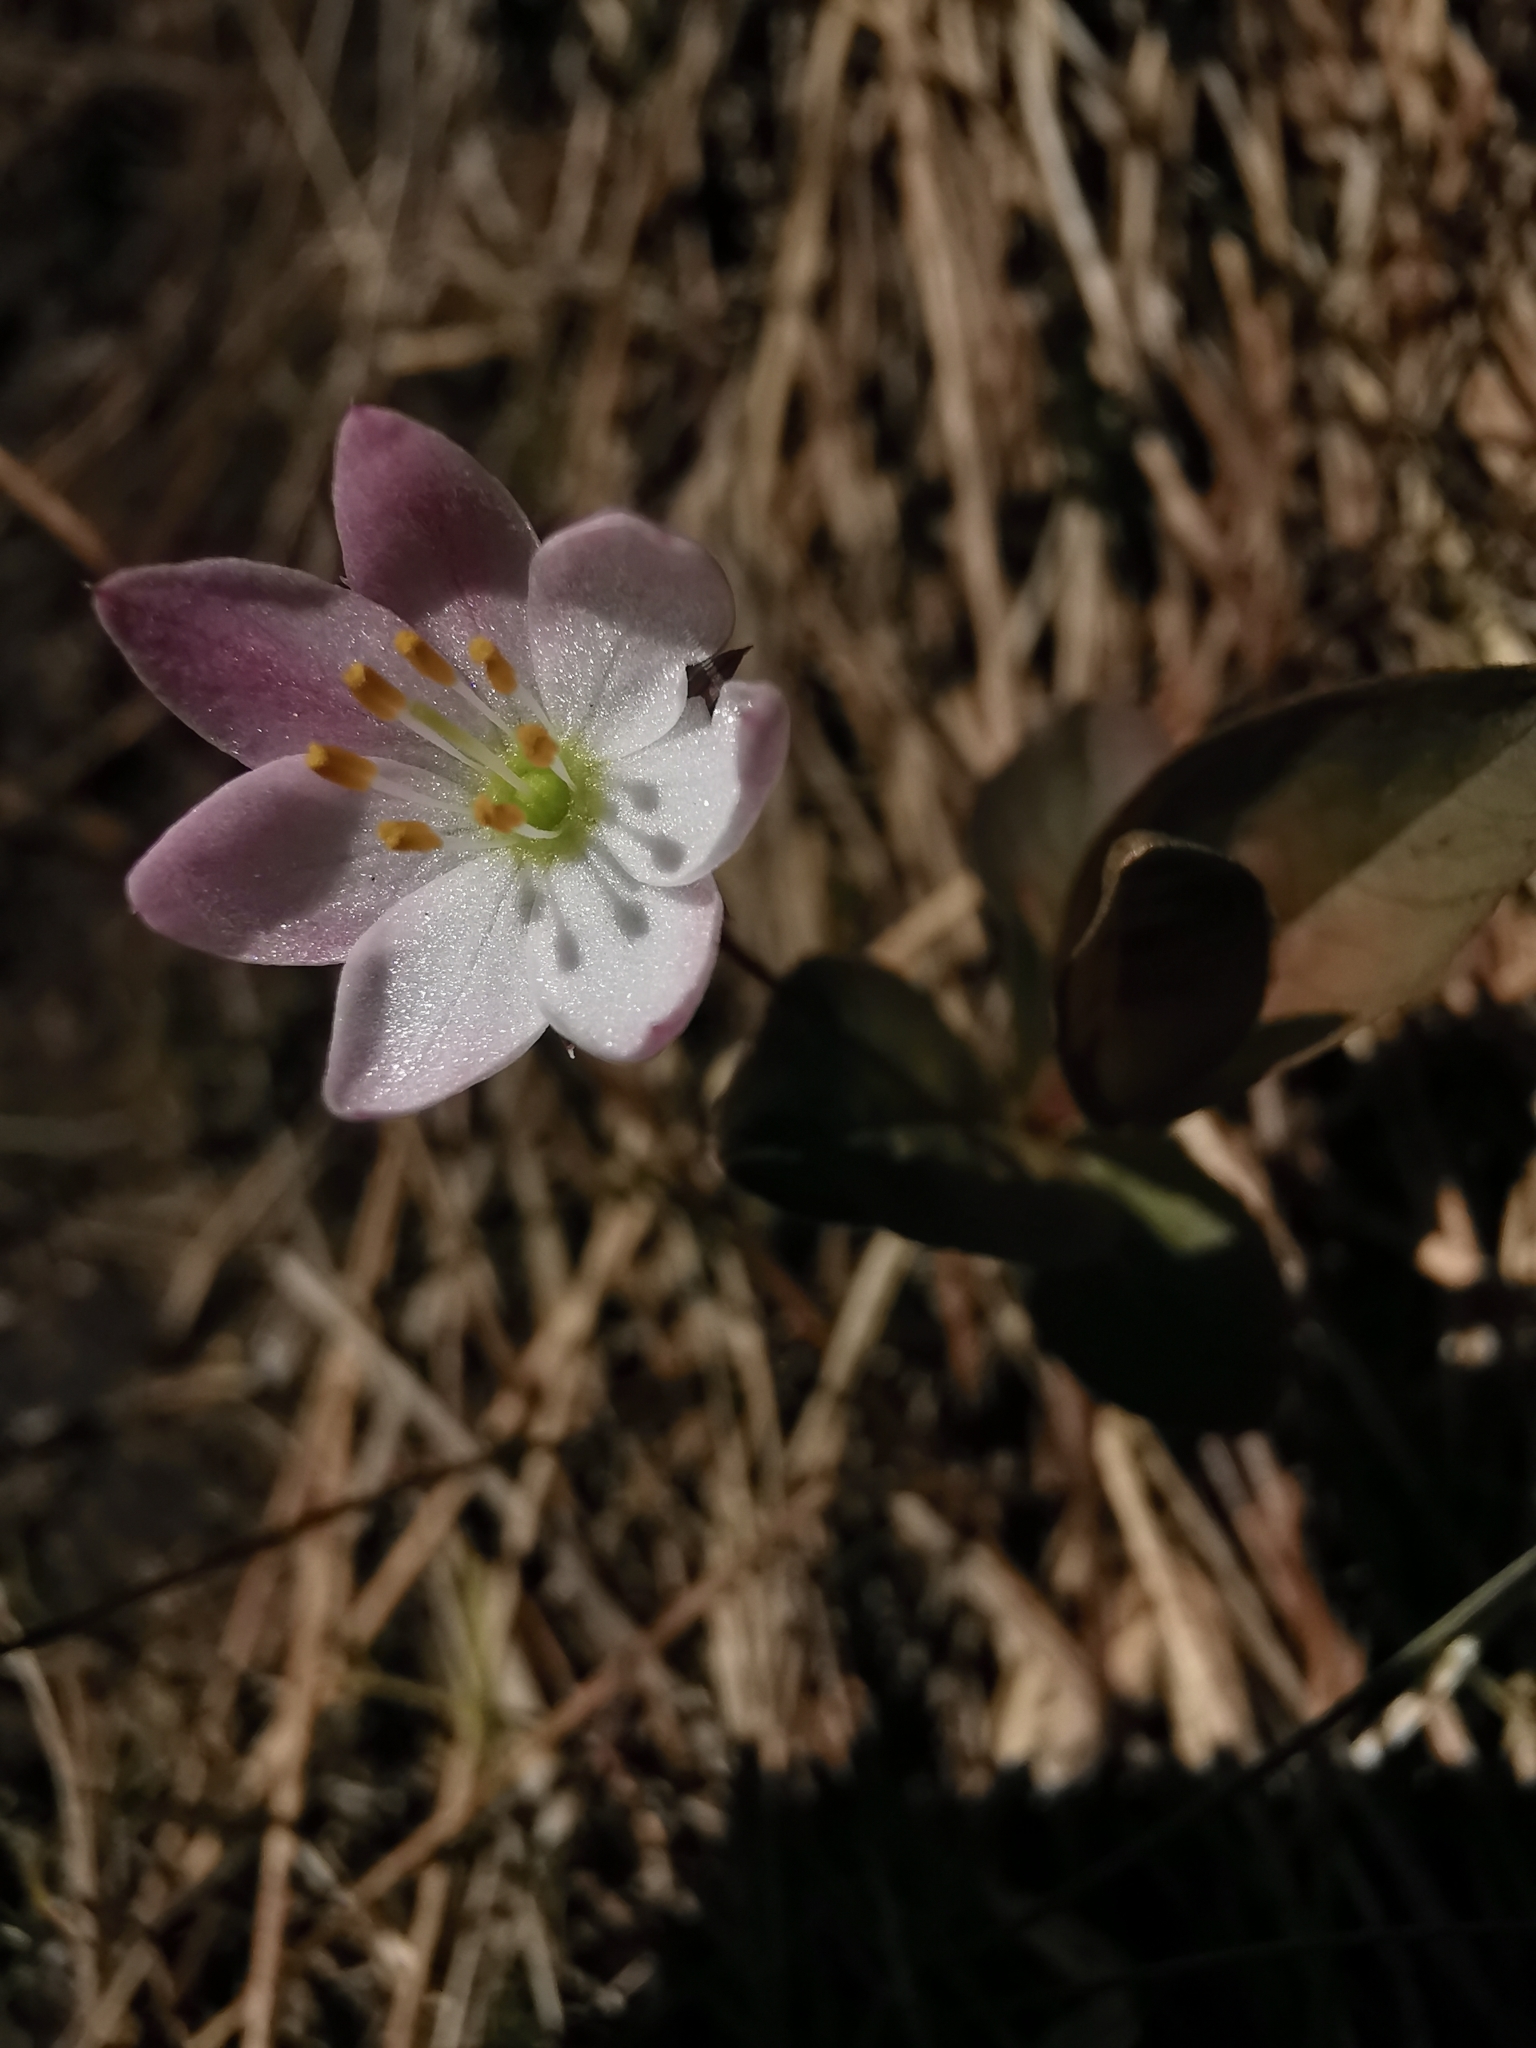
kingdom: Plantae
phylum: Tracheophyta
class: Magnoliopsida
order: Ericales
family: Primulaceae
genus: Lysimachia
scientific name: Lysimachia europaea
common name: Arctic starflower
